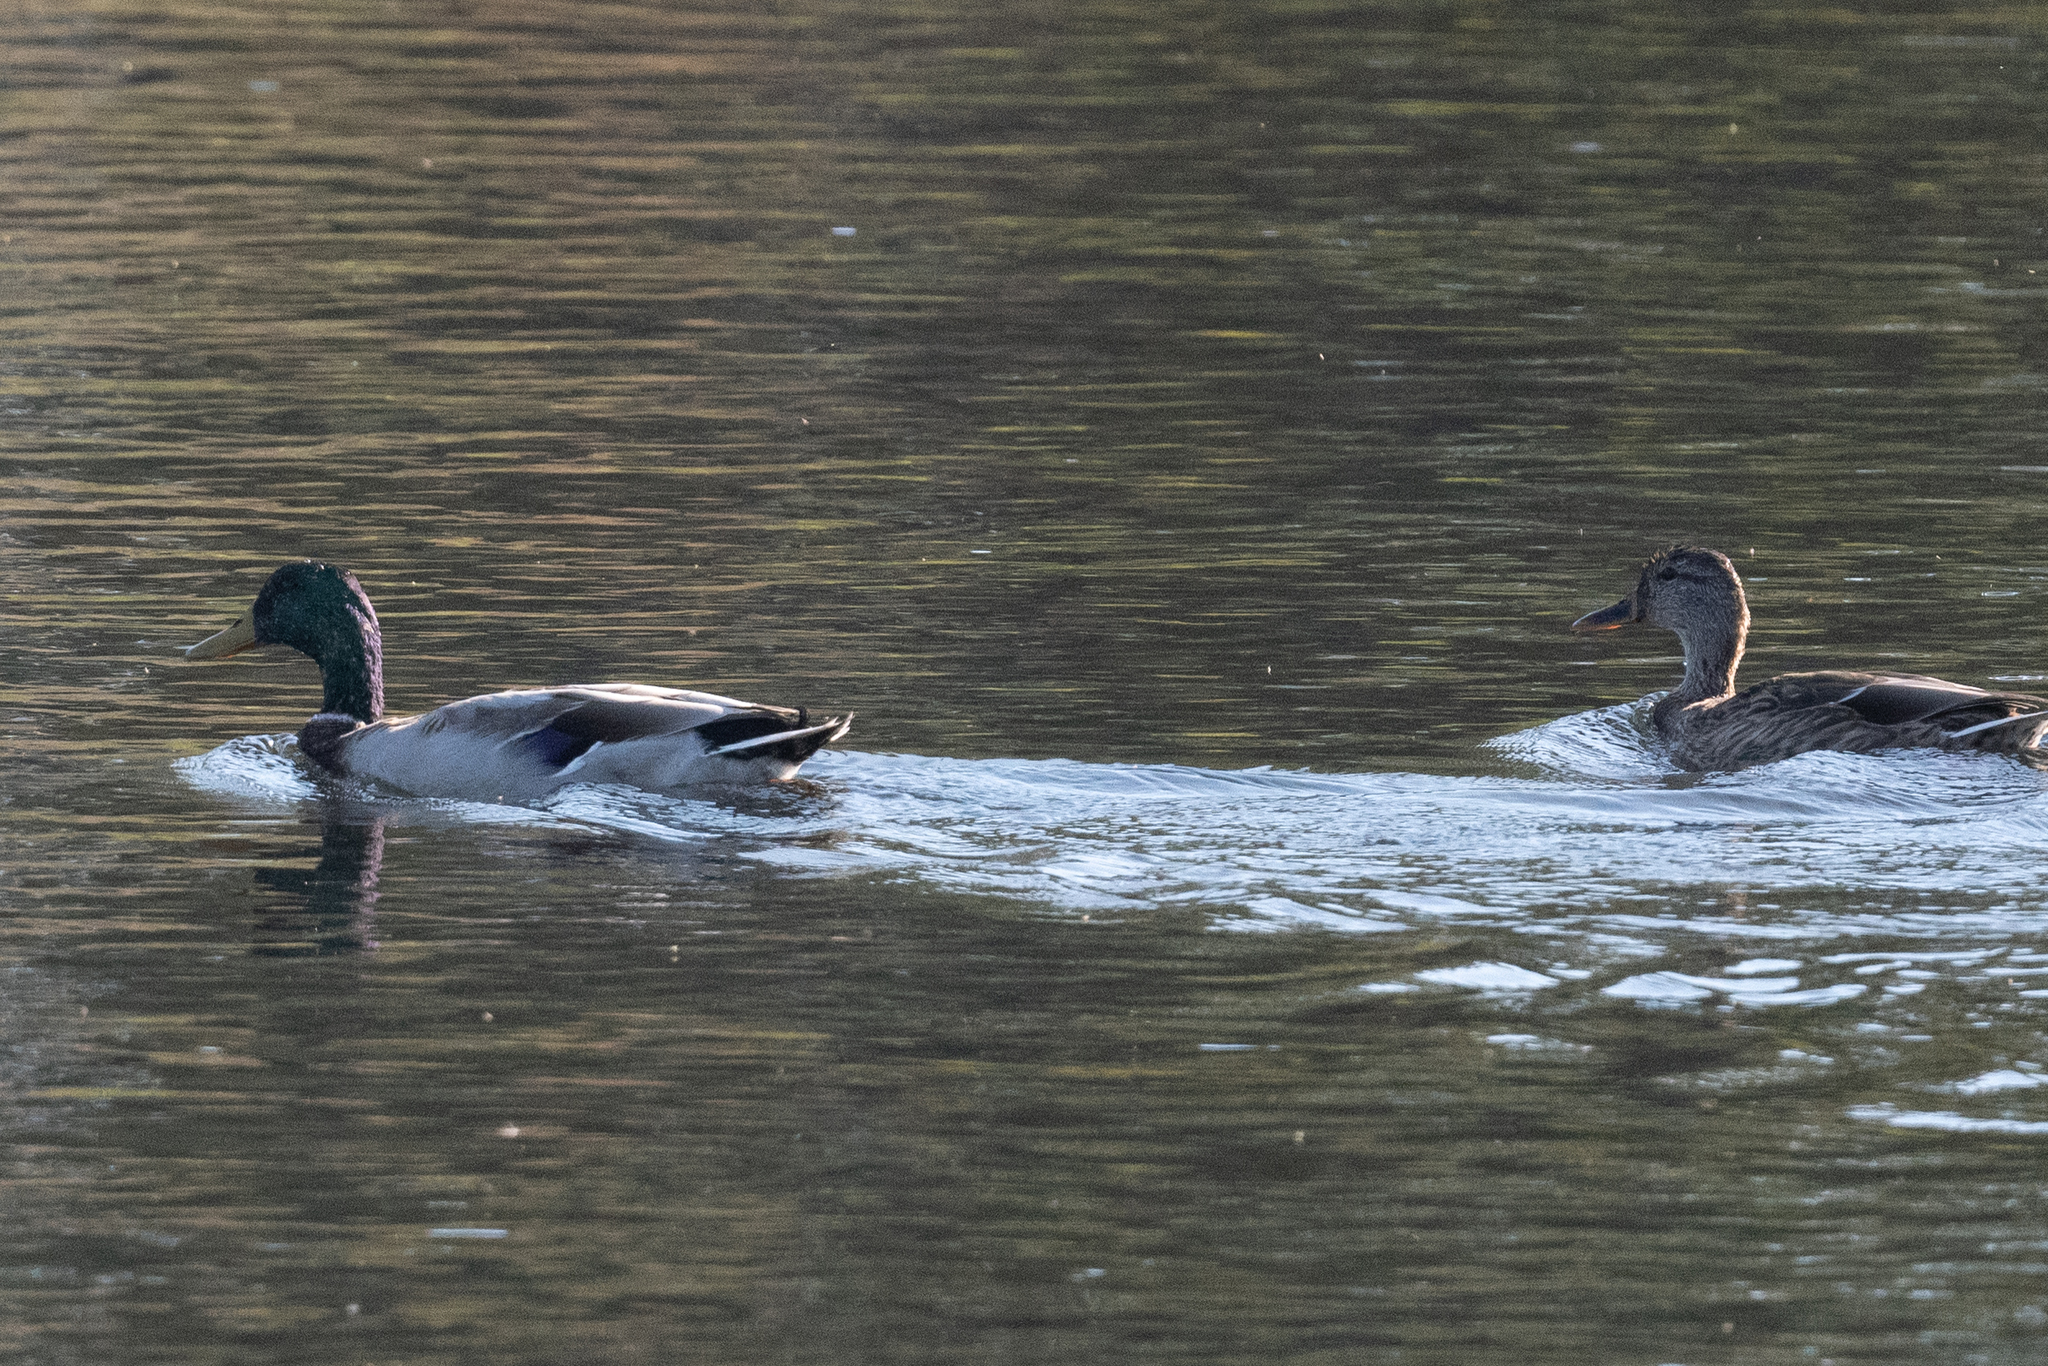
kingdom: Animalia
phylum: Chordata
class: Aves
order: Anseriformes
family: Anatidae
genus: Anas
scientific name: Anas platyrhynchos
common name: Mallard
